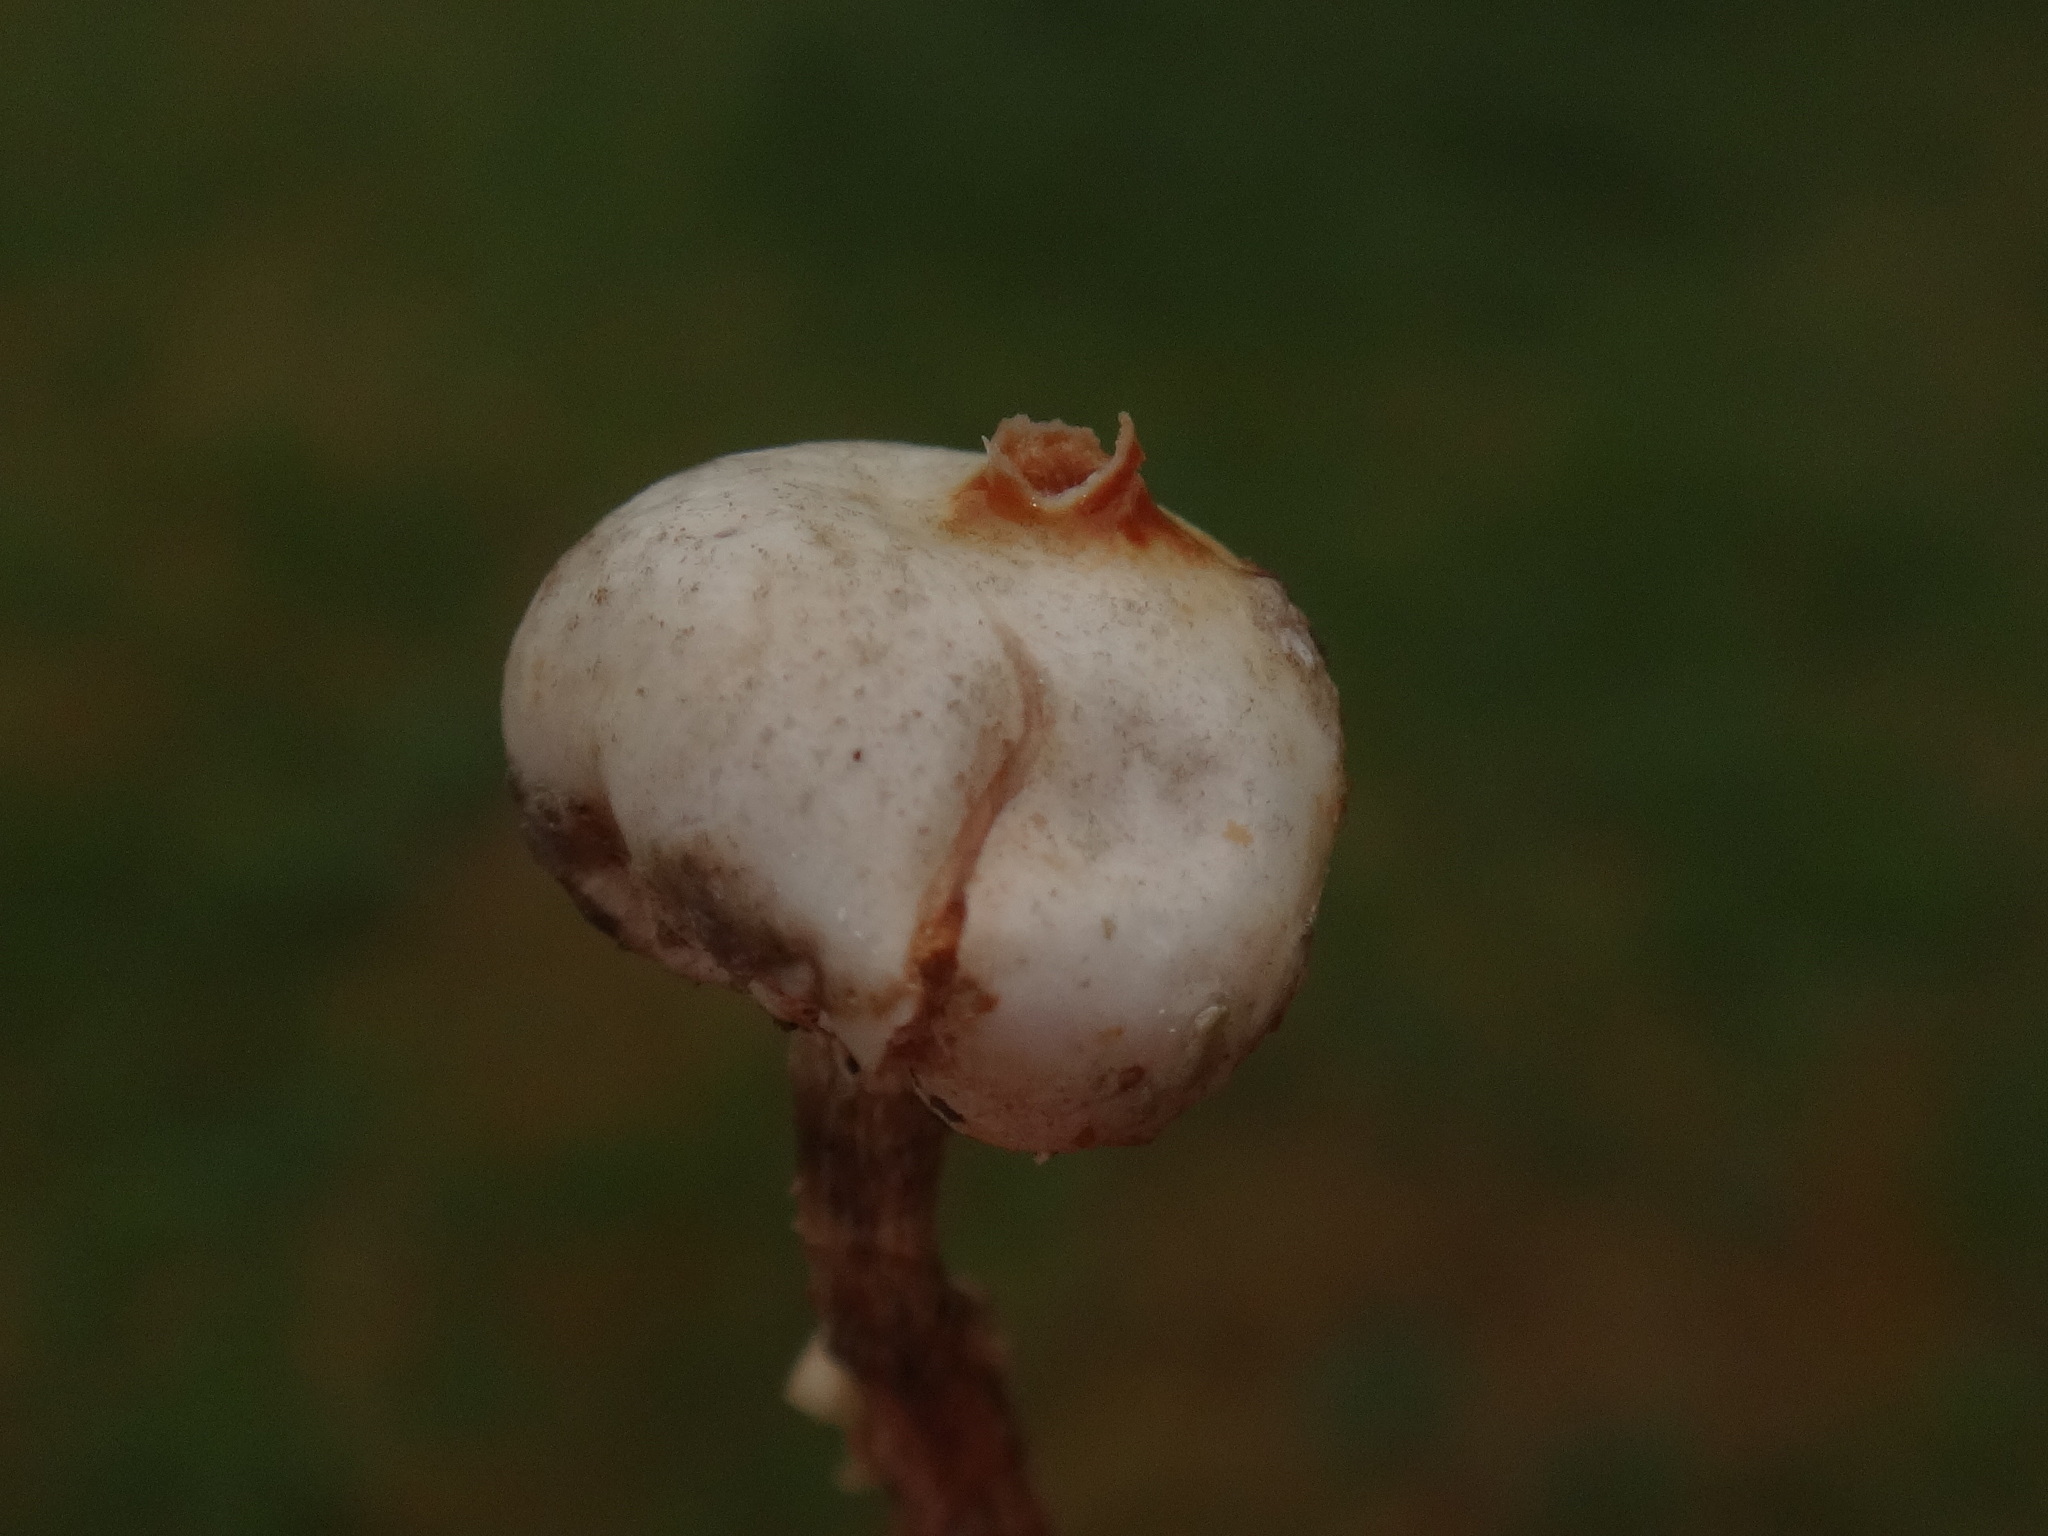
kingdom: Fungi
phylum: Basidiomycota
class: Agaricomycetes
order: Agaricales
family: Agaricaceae
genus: Tulostoma
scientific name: Tulostoma brumale
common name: Winter stalk puffball
